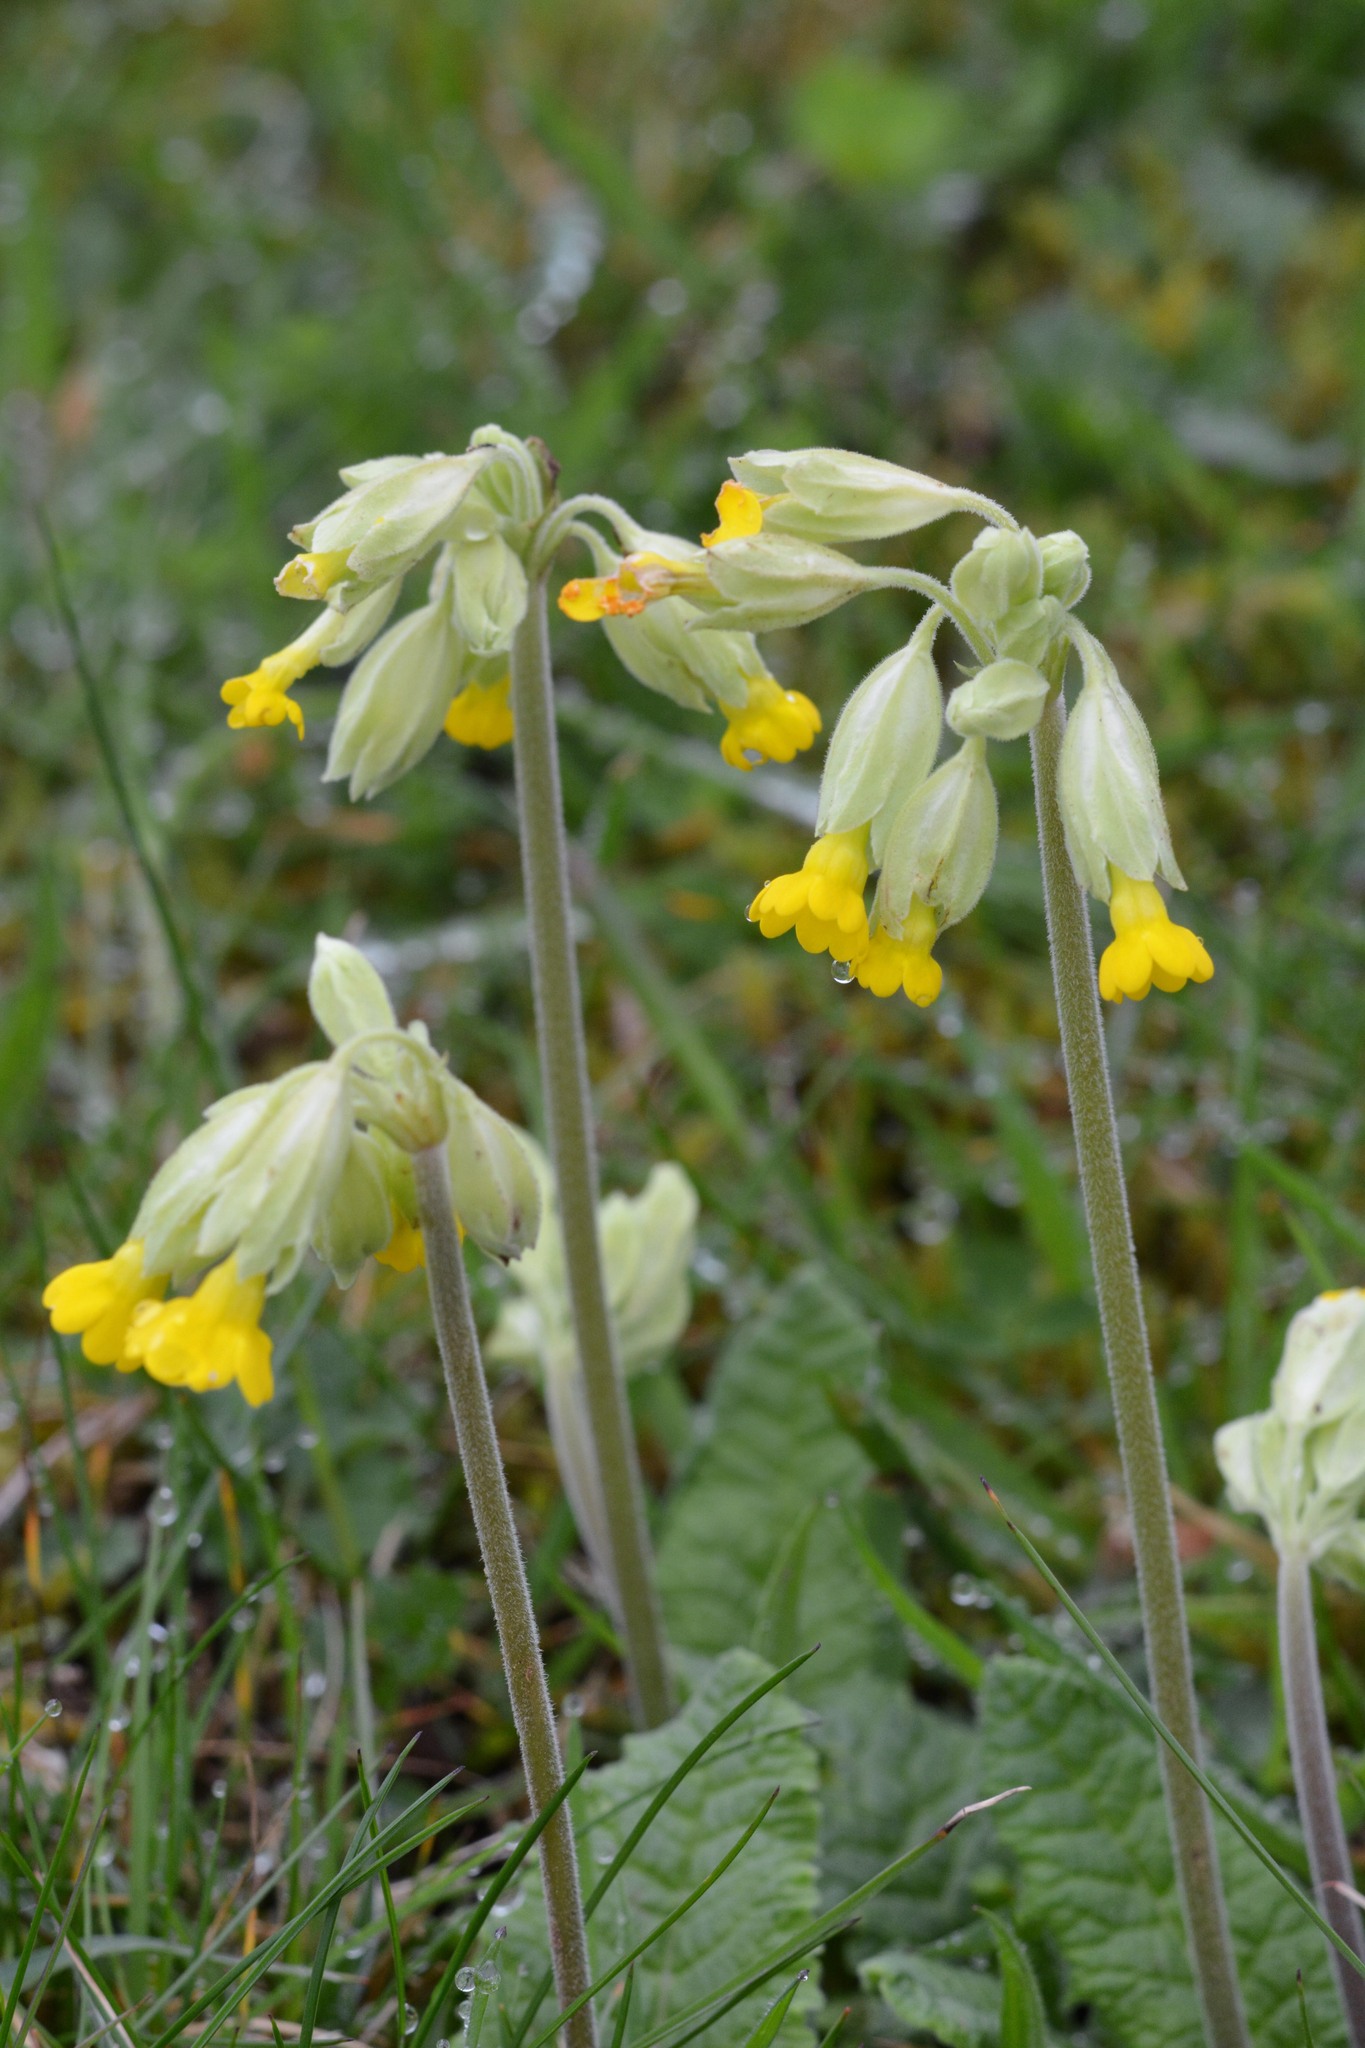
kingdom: Plantae
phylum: Tracheophyta
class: Magnoliopsida
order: Ericales
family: Primulaceae
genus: Primula
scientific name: Primula veris
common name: Cowslip
